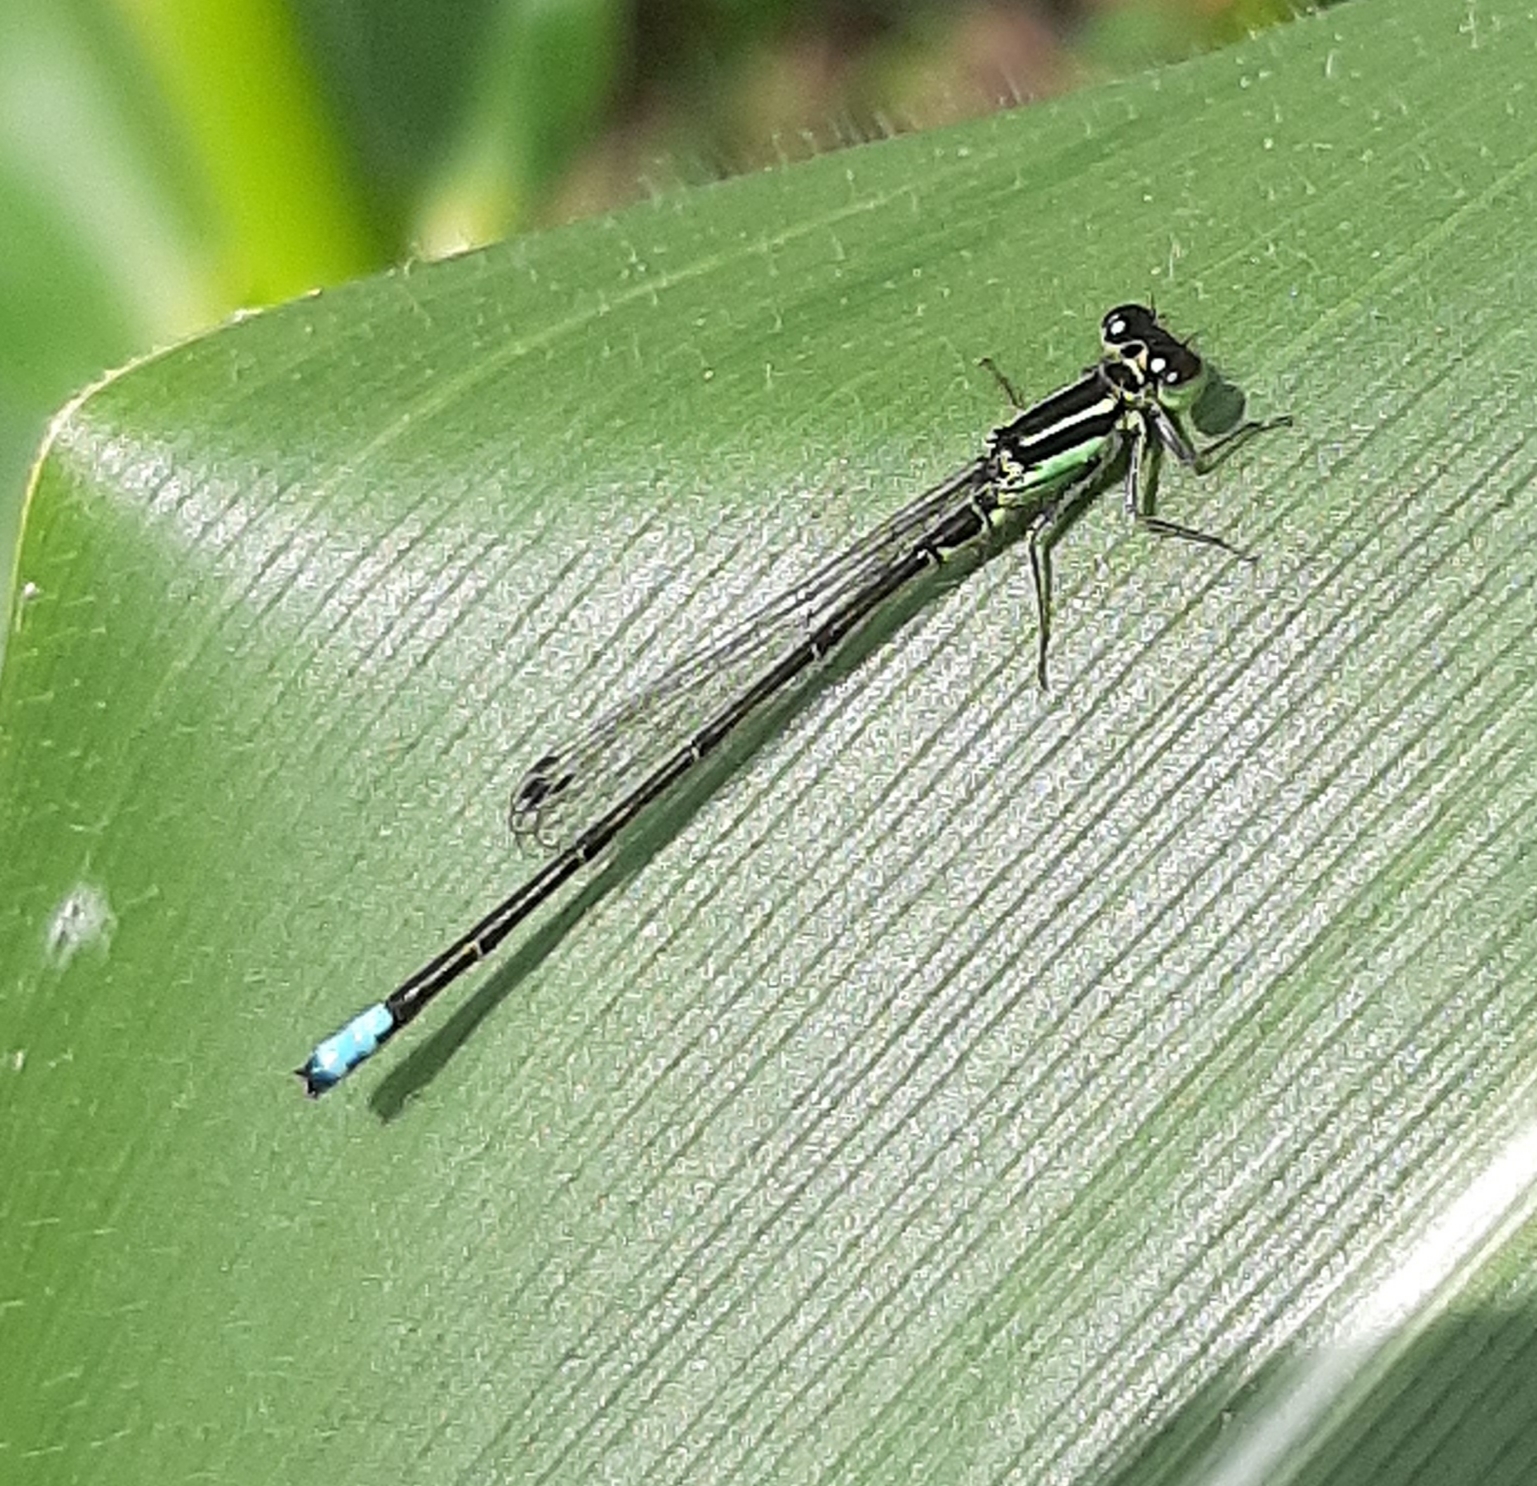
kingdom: Animalia
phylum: Arthropoda
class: Insecta
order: Odonata
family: Coenagrionidae
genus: Ischnura
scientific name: Ischnura verticalis
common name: Eastern forktail
